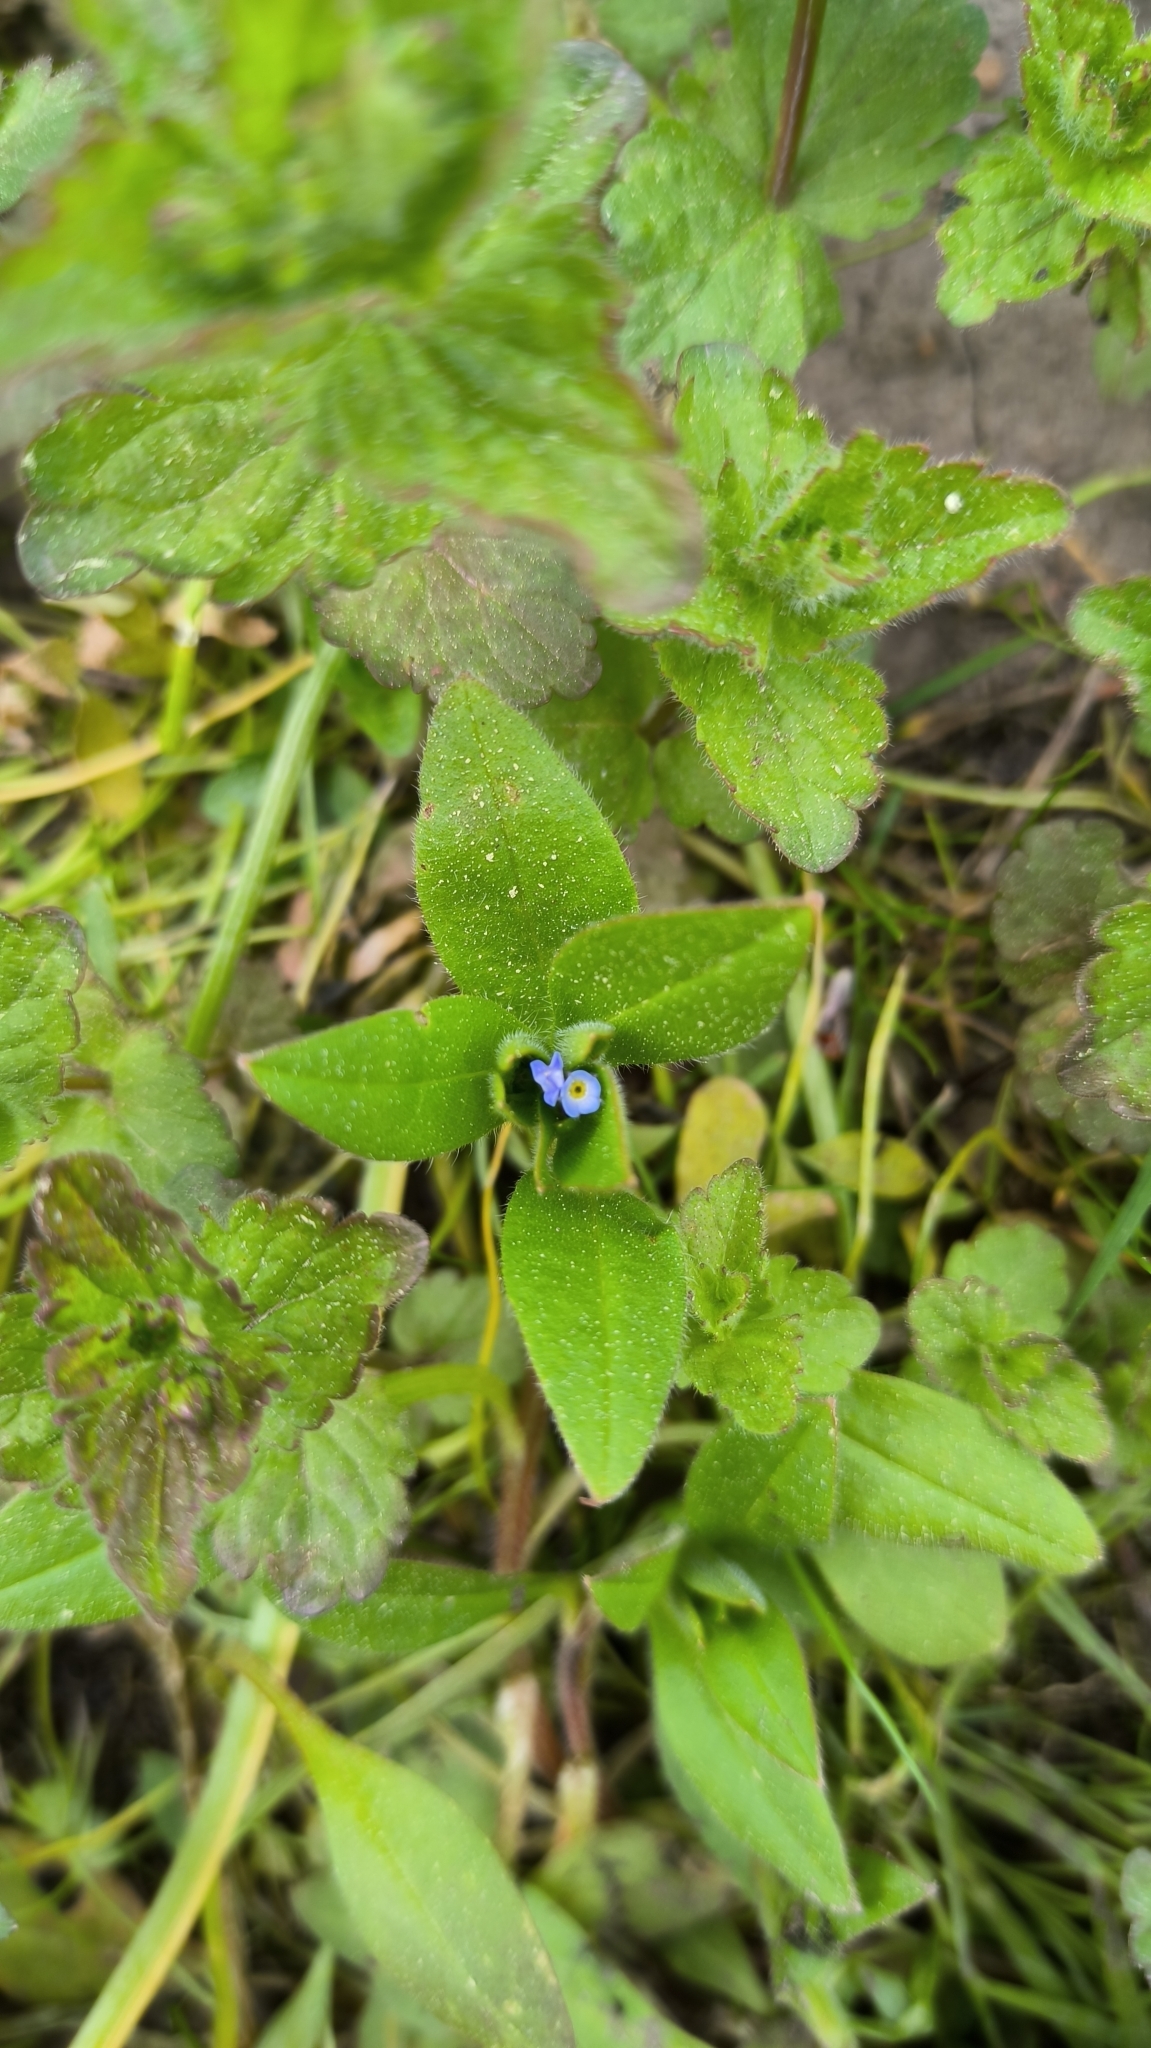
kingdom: Plantae
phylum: Tracheophyta
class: Magnoliopsida
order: Boraginales
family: Boraginaceae
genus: Myosotis
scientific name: Myosotis sparsiflora
